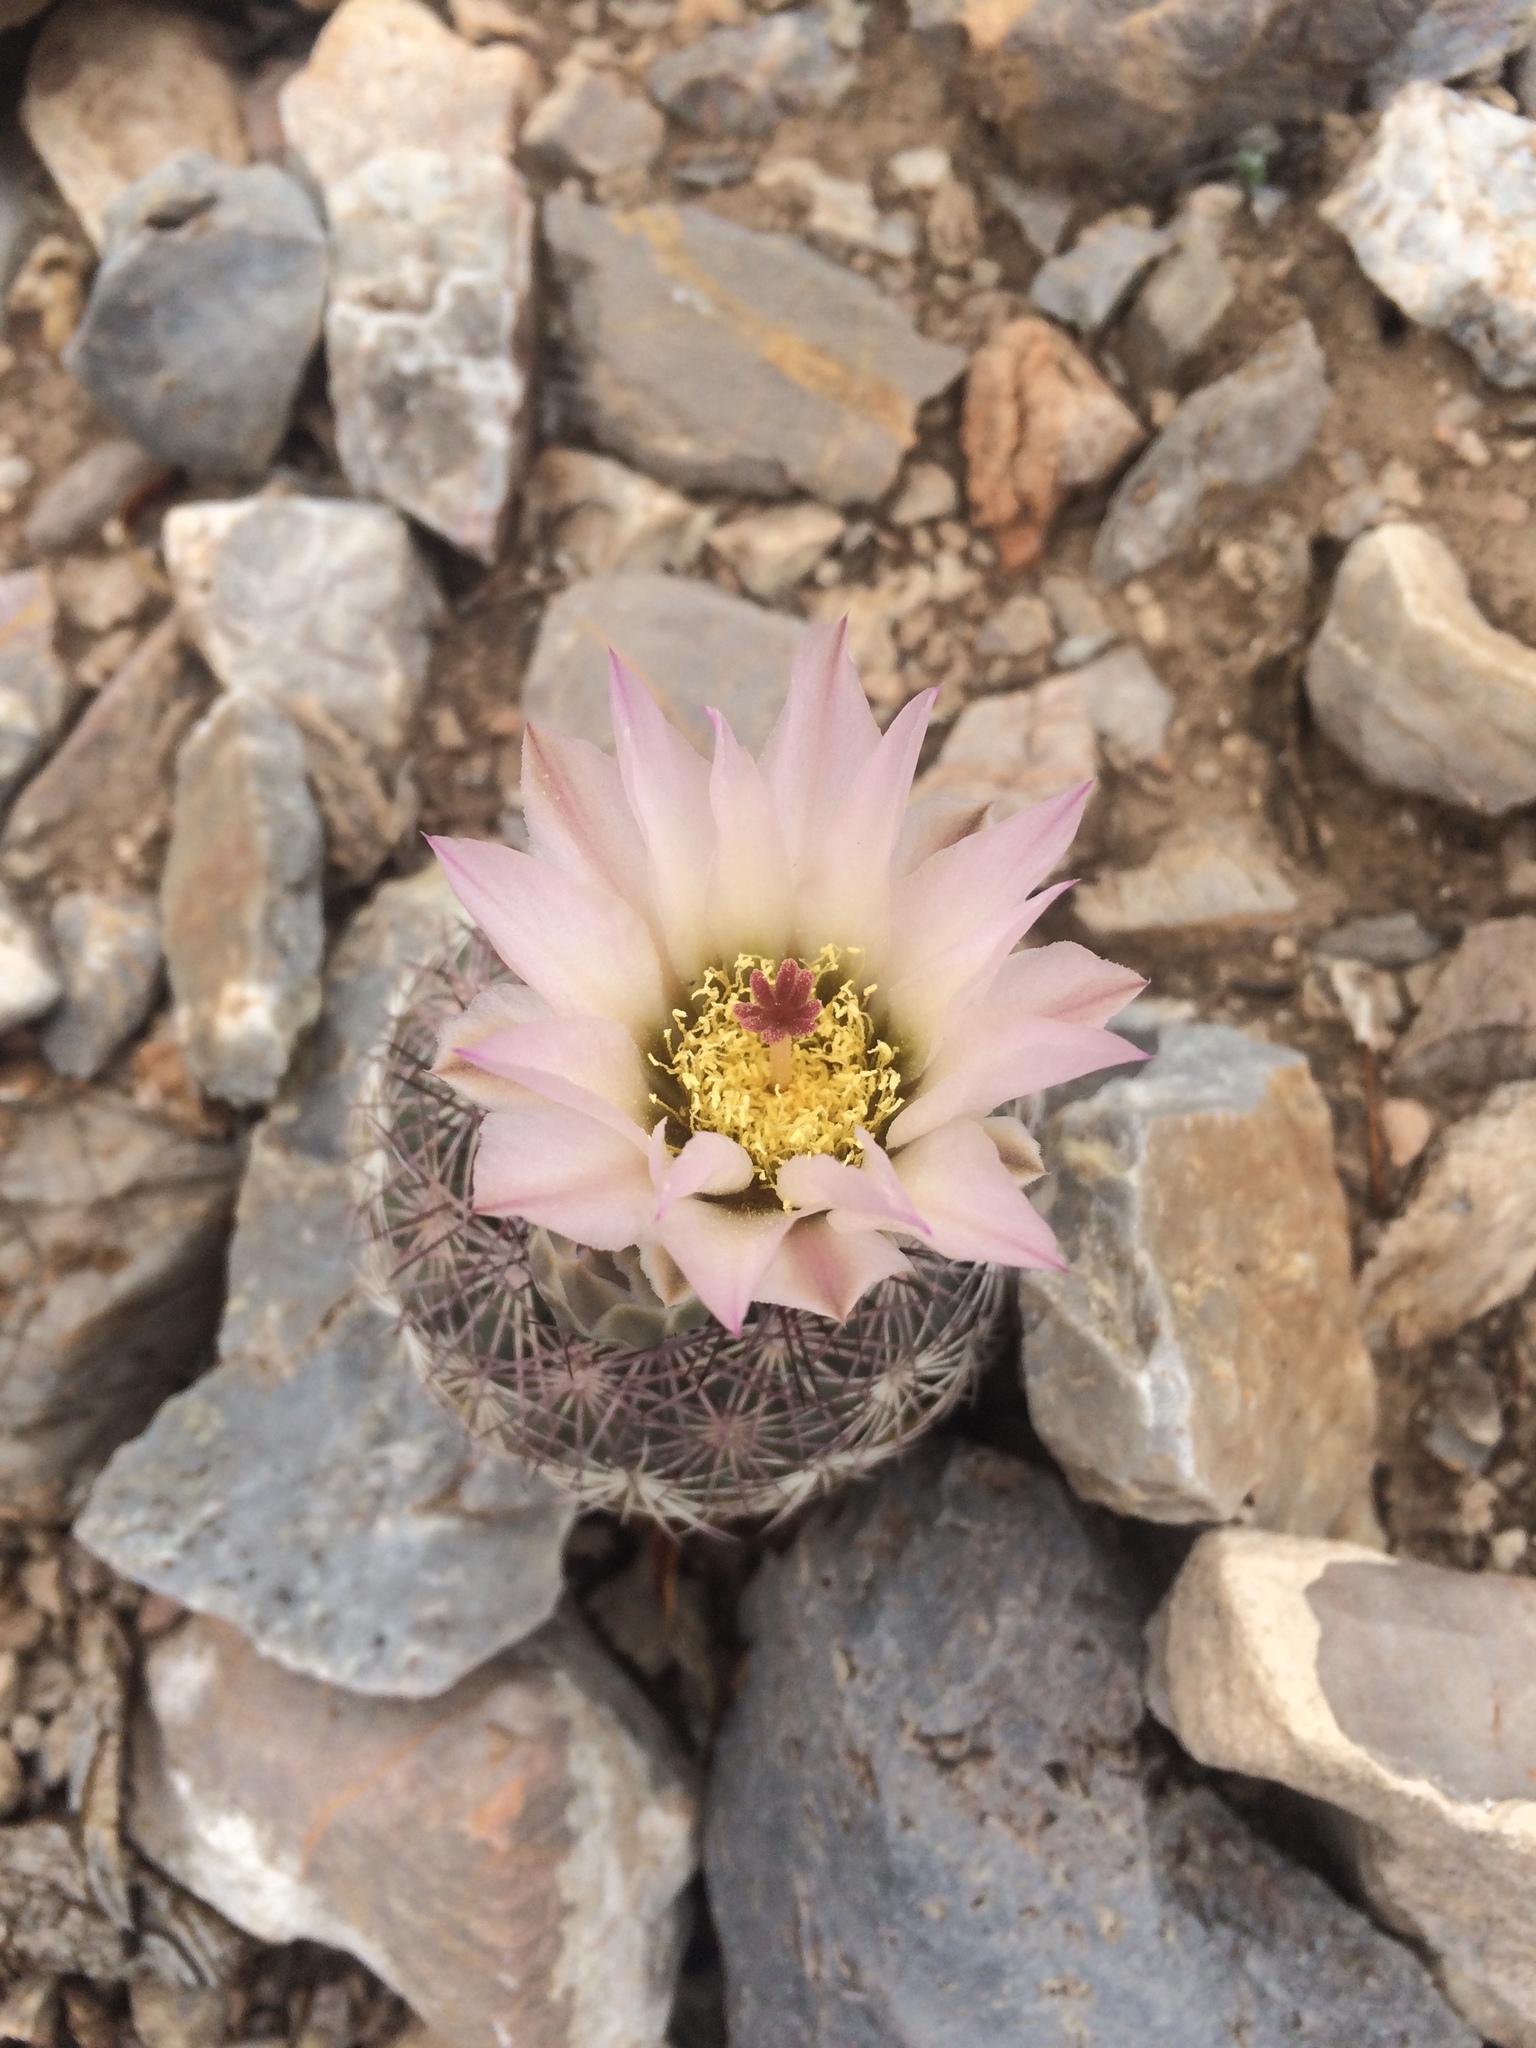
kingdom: Plantae
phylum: Tracheophyta
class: Magnoliopsida
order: Caryophyllales
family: Cactaceae
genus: Sclerocactus
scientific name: Sclerocactus johnsonii
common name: Eight-spine fishhook cactus
